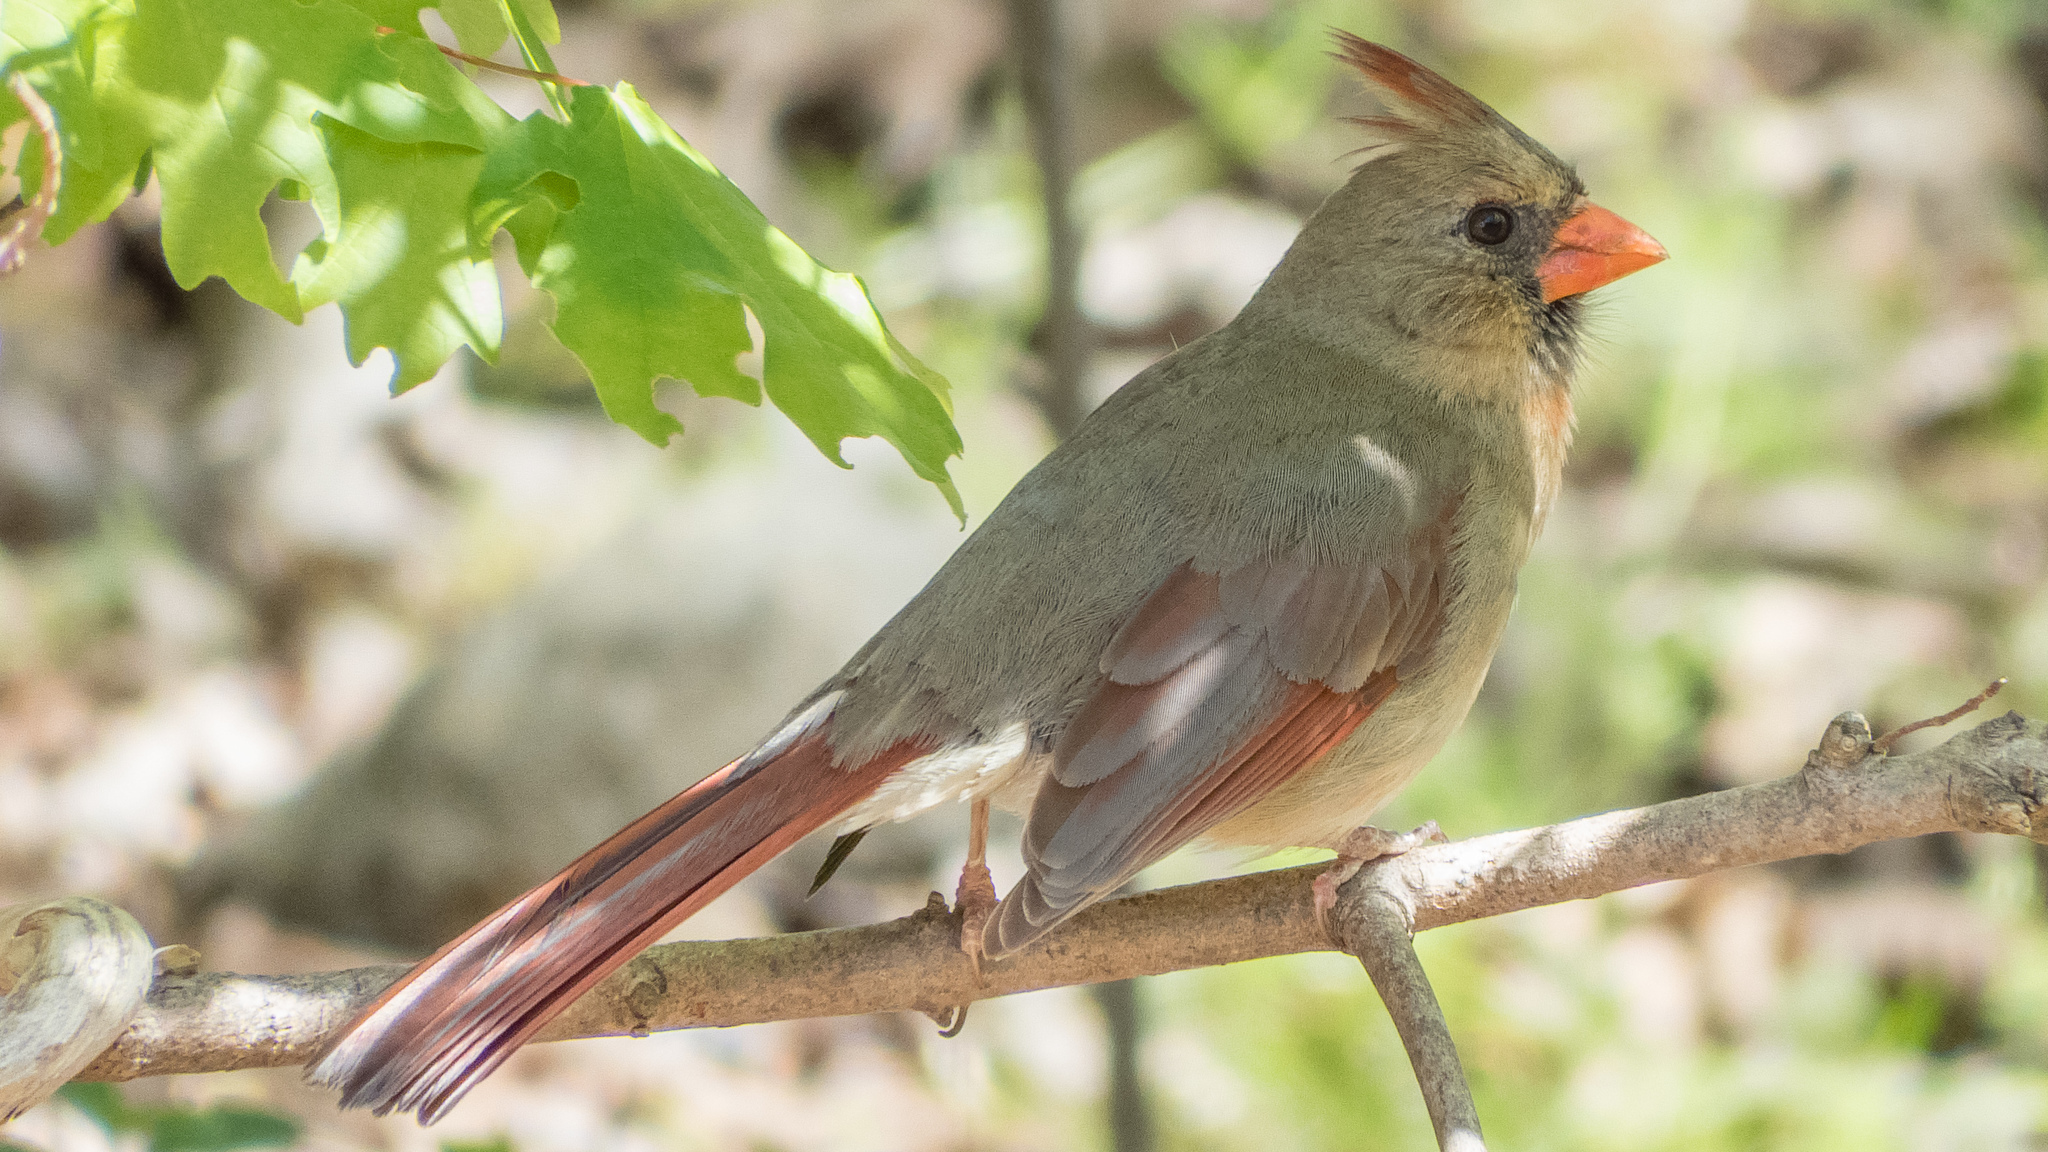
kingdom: Animalia
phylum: Chordata
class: Aves
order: Passeriformes
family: Cardinalidae
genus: Cardinalis
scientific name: Cardinalis cardinalis
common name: Northern cardinal
